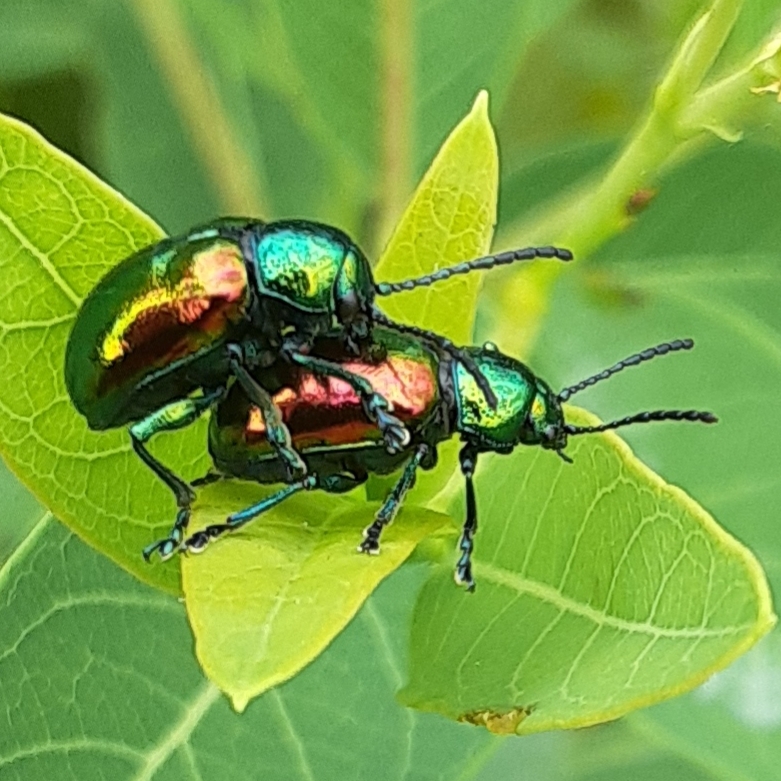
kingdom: Animalia
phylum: Arthropoda
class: Insecta
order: Coleoptera
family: Chrysomelidae
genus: Chrysochus
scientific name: Chrysochus auratus
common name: Dogbane leaf beetle
